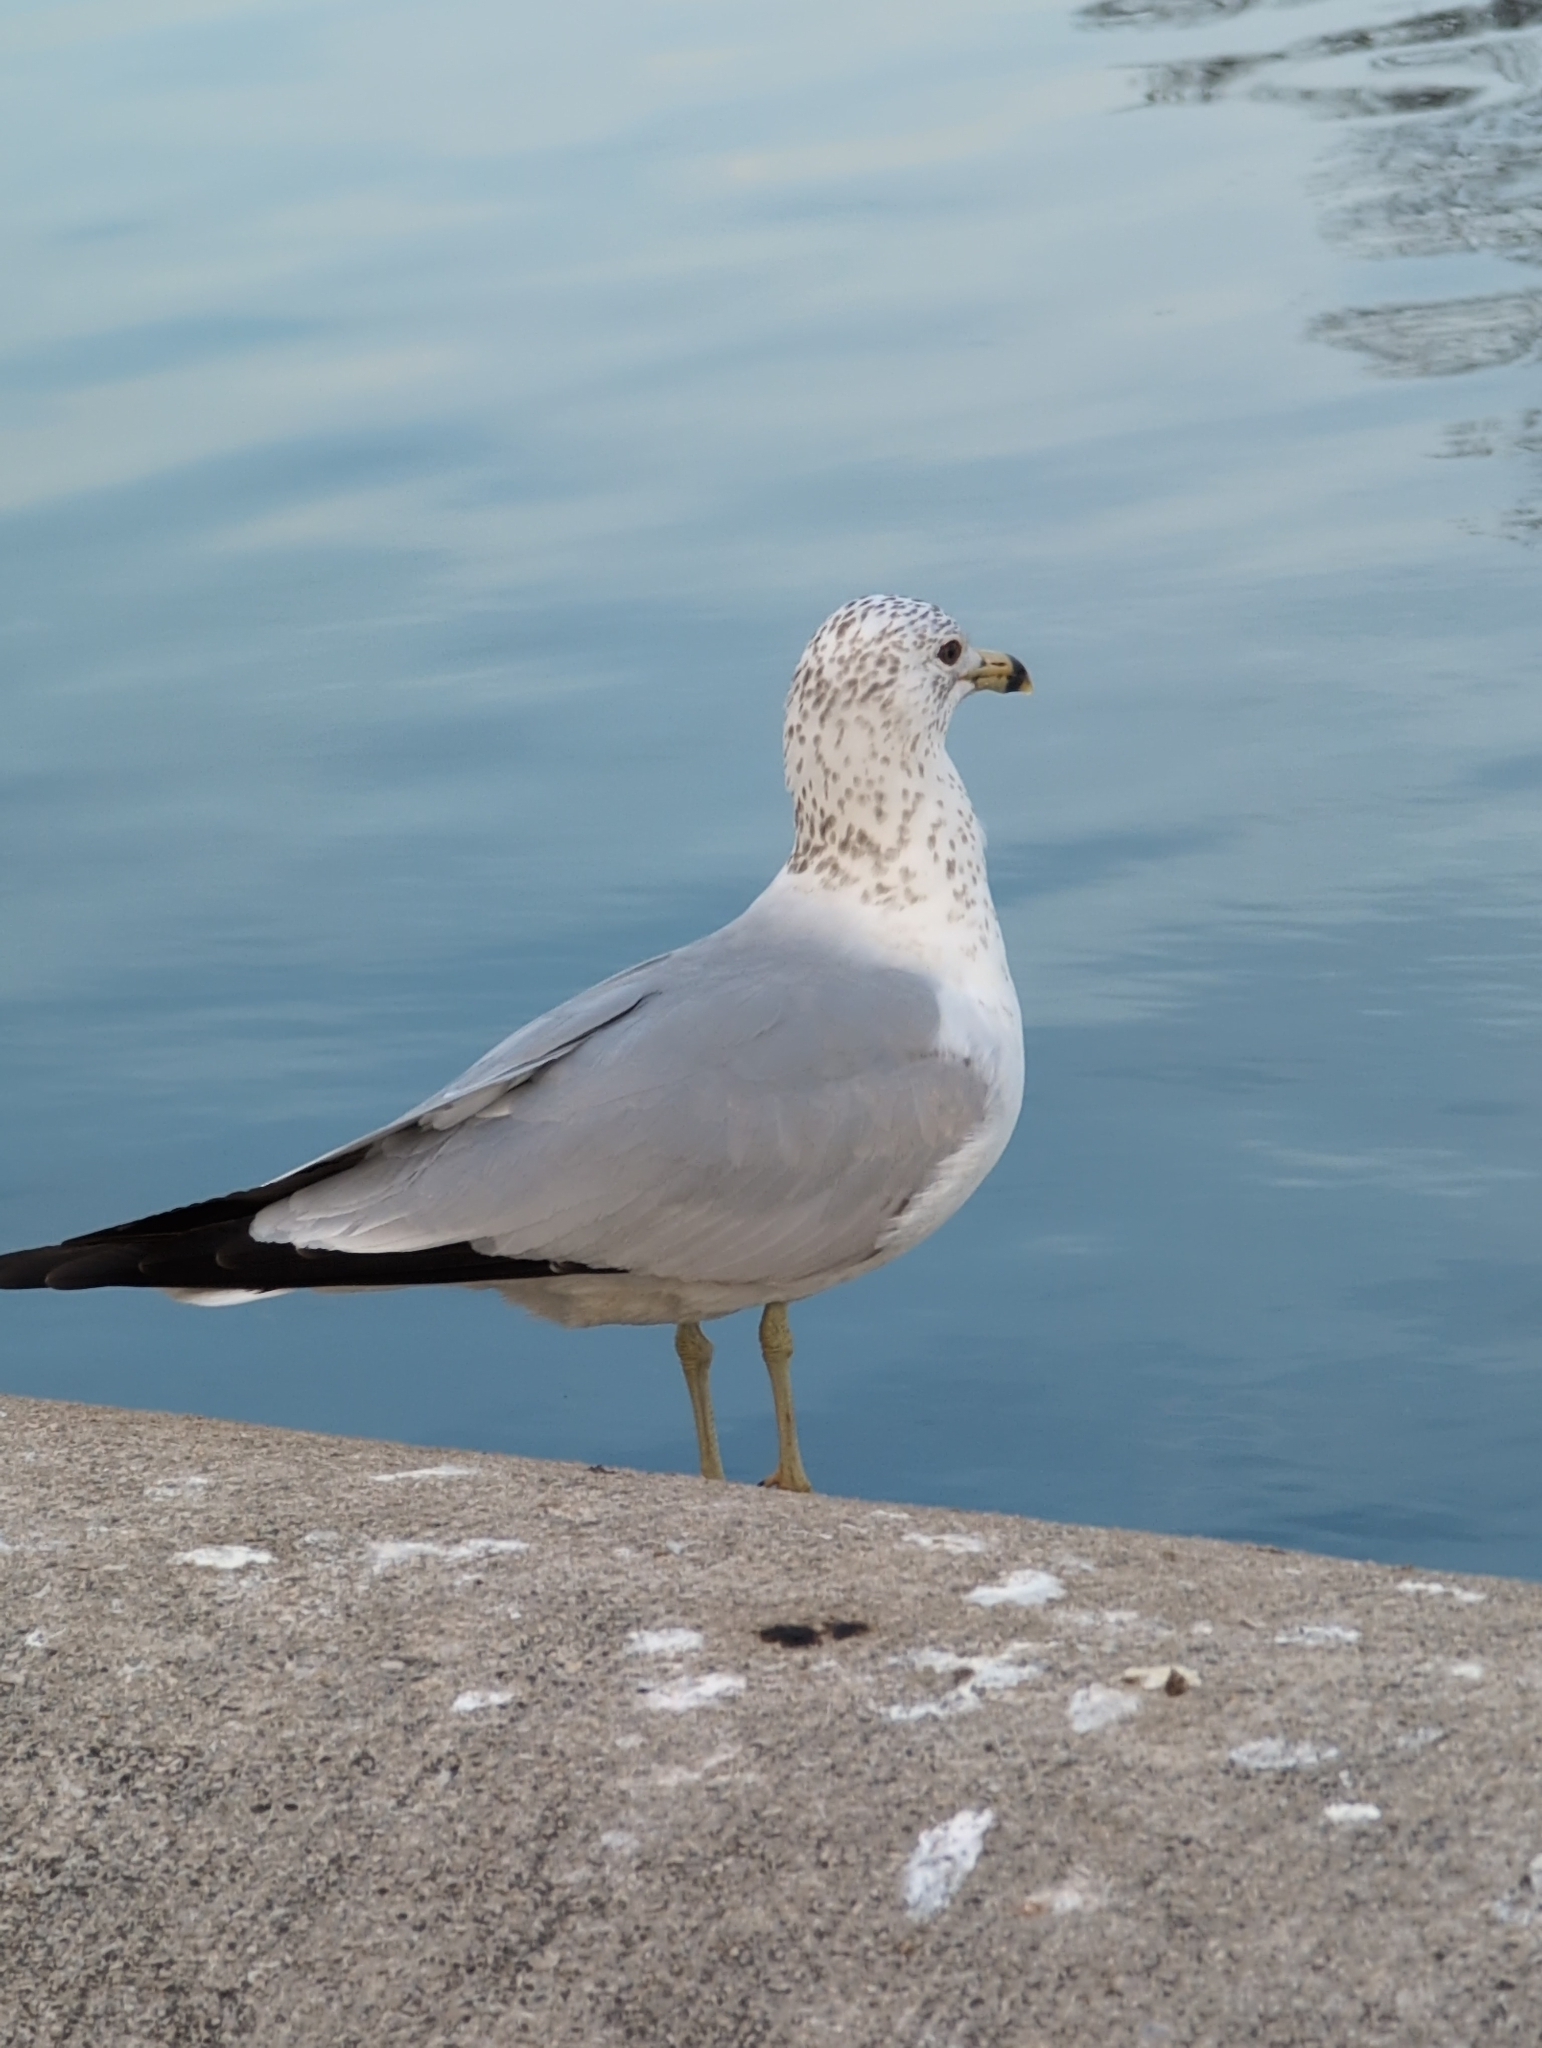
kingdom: Animalia
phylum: Chordata
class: Aves
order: Charadriiformes
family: Laridae
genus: Larus
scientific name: Larus delawarensis
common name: Ring-billed gull
